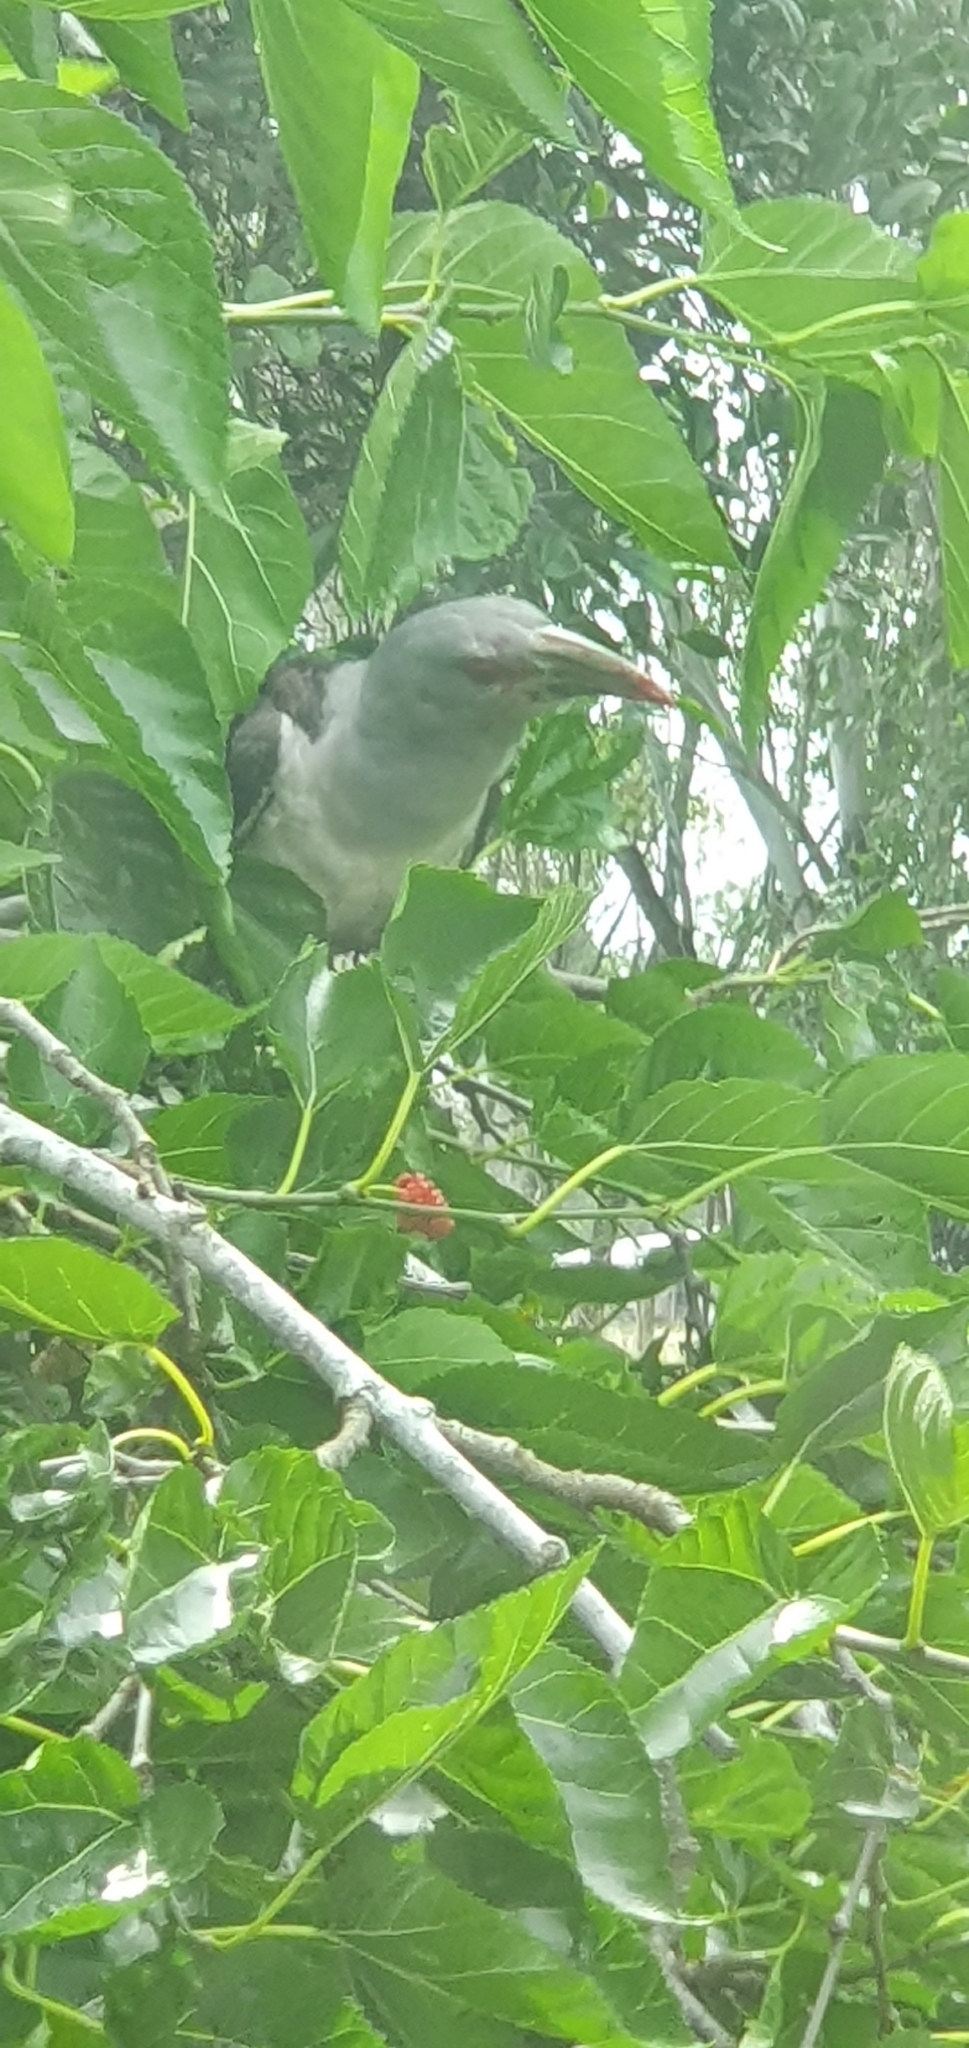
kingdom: Animalia
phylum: Chordata
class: Aves
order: Cuculiformes
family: Cuculidae
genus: Scythrops
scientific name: Scythrops novaehollandiae
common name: Channel-billed cuckoo
